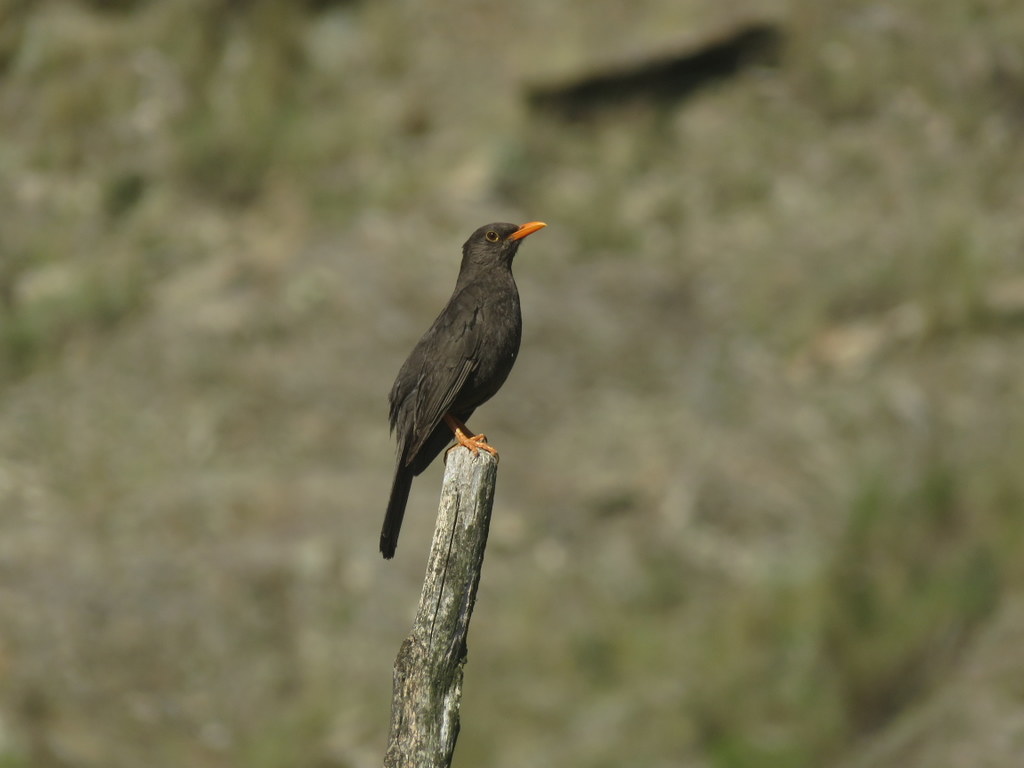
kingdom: Animalia
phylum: Chordata
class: Aves
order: Passeriformes
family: Turdidae
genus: Turdus
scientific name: Turdus chiguanco
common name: Chiguanco thrush
